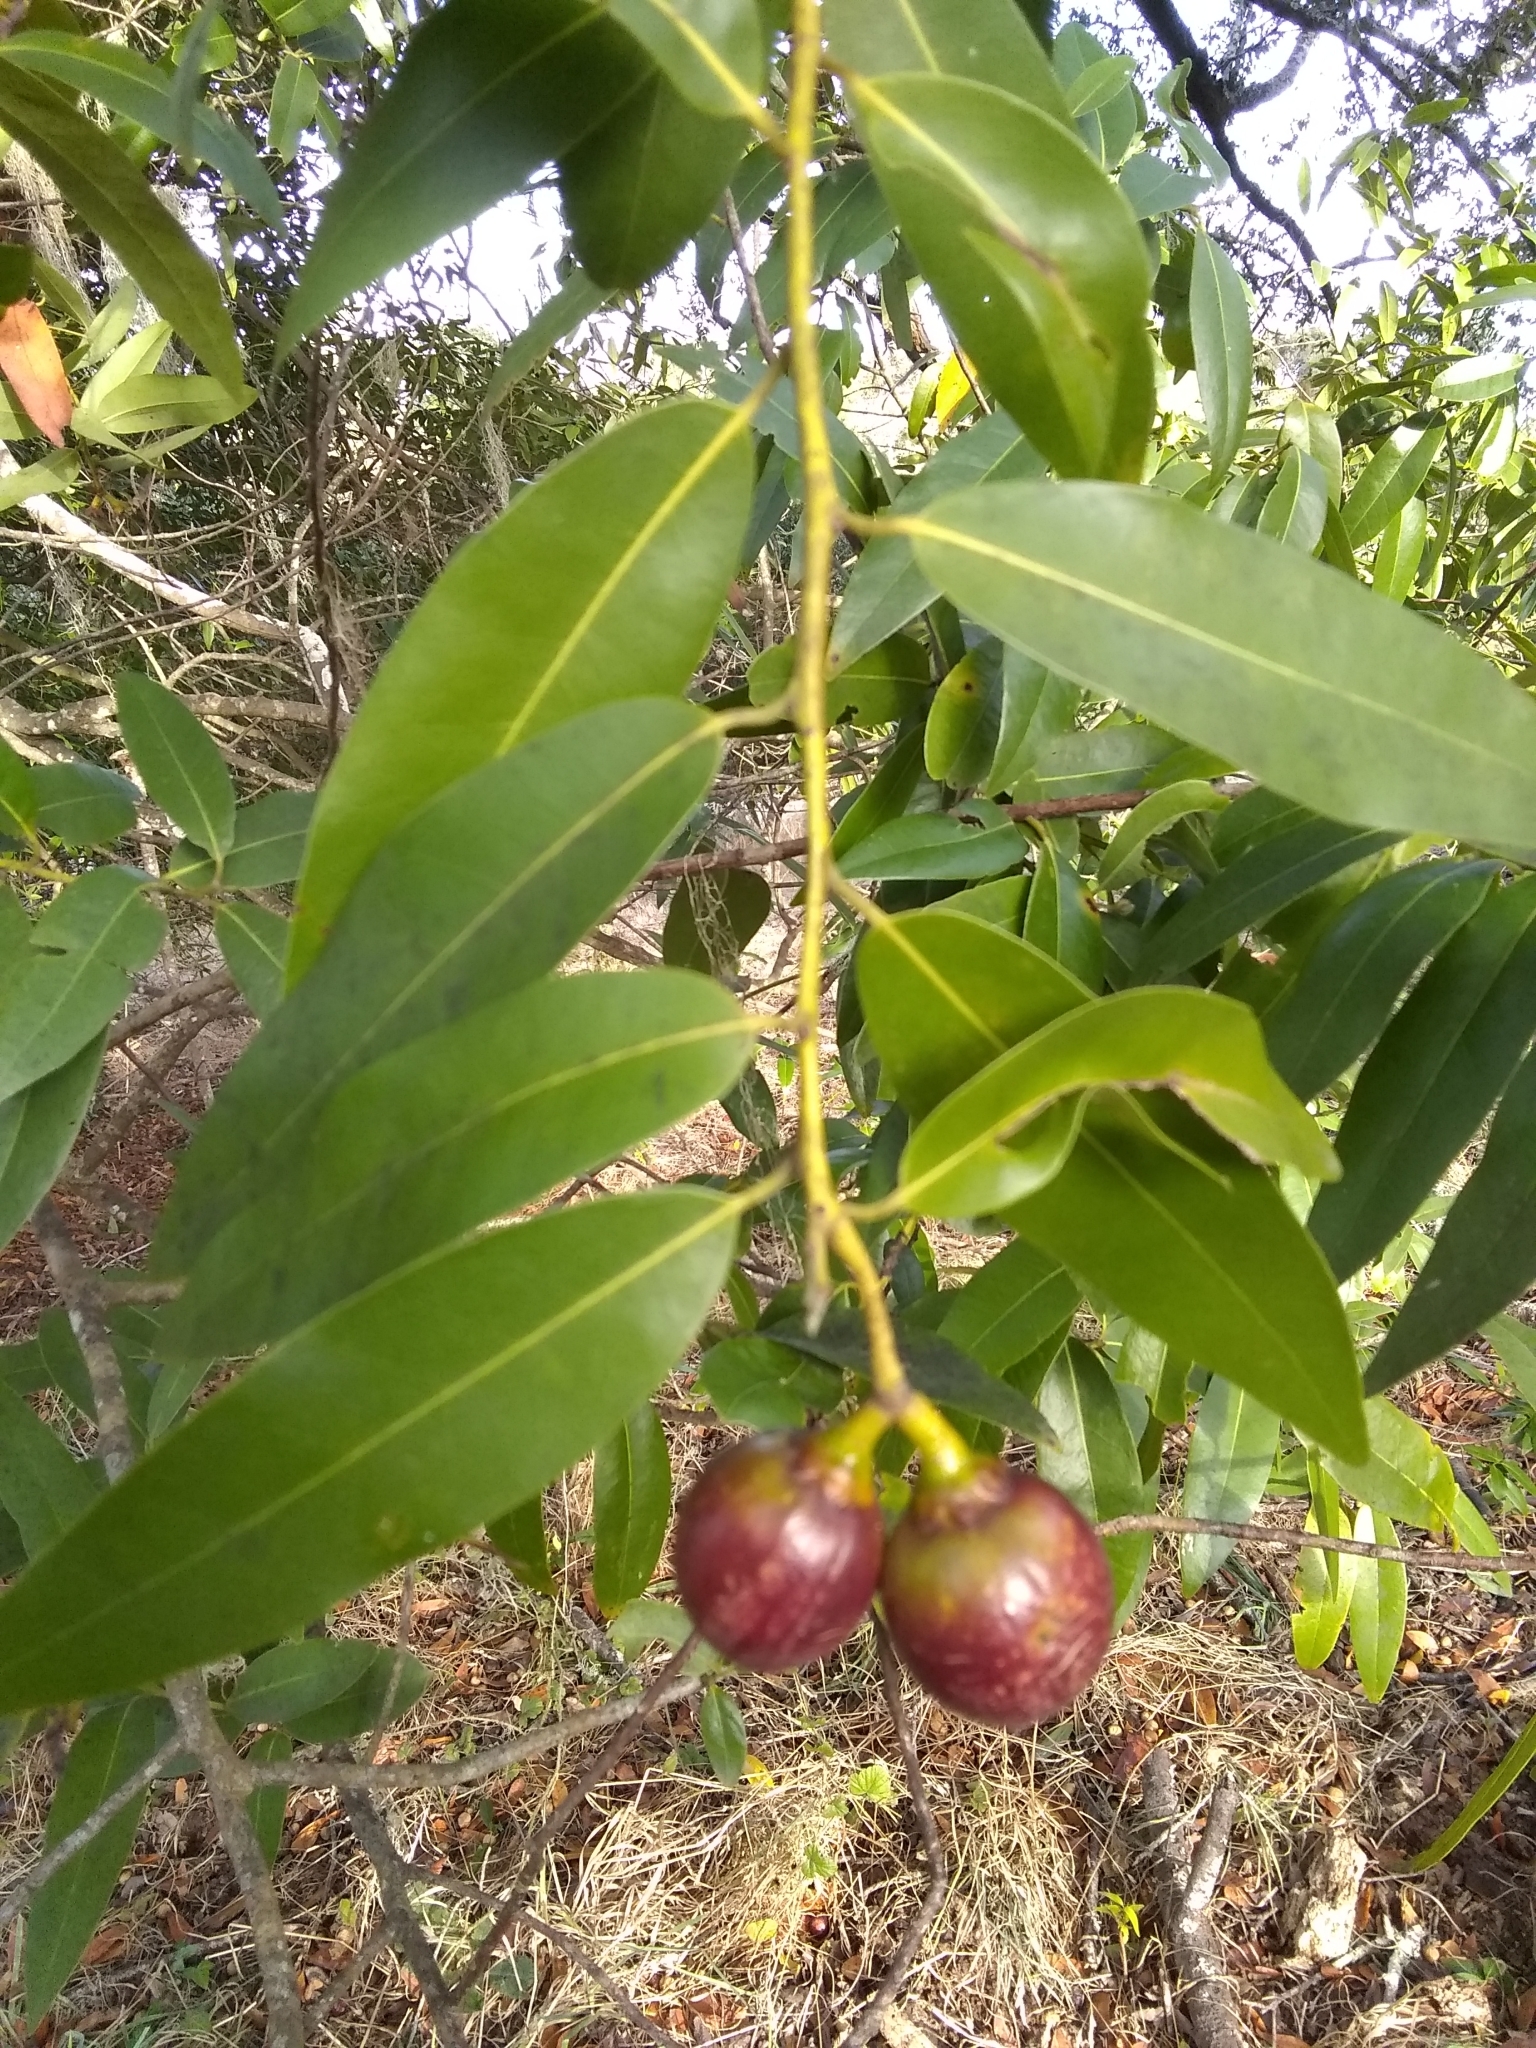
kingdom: Plantae
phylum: Tracheophyta
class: Magnoliopsida
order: Laurales
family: Lauraceae
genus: Umbellularia
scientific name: Umbellularia californica
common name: California bay
